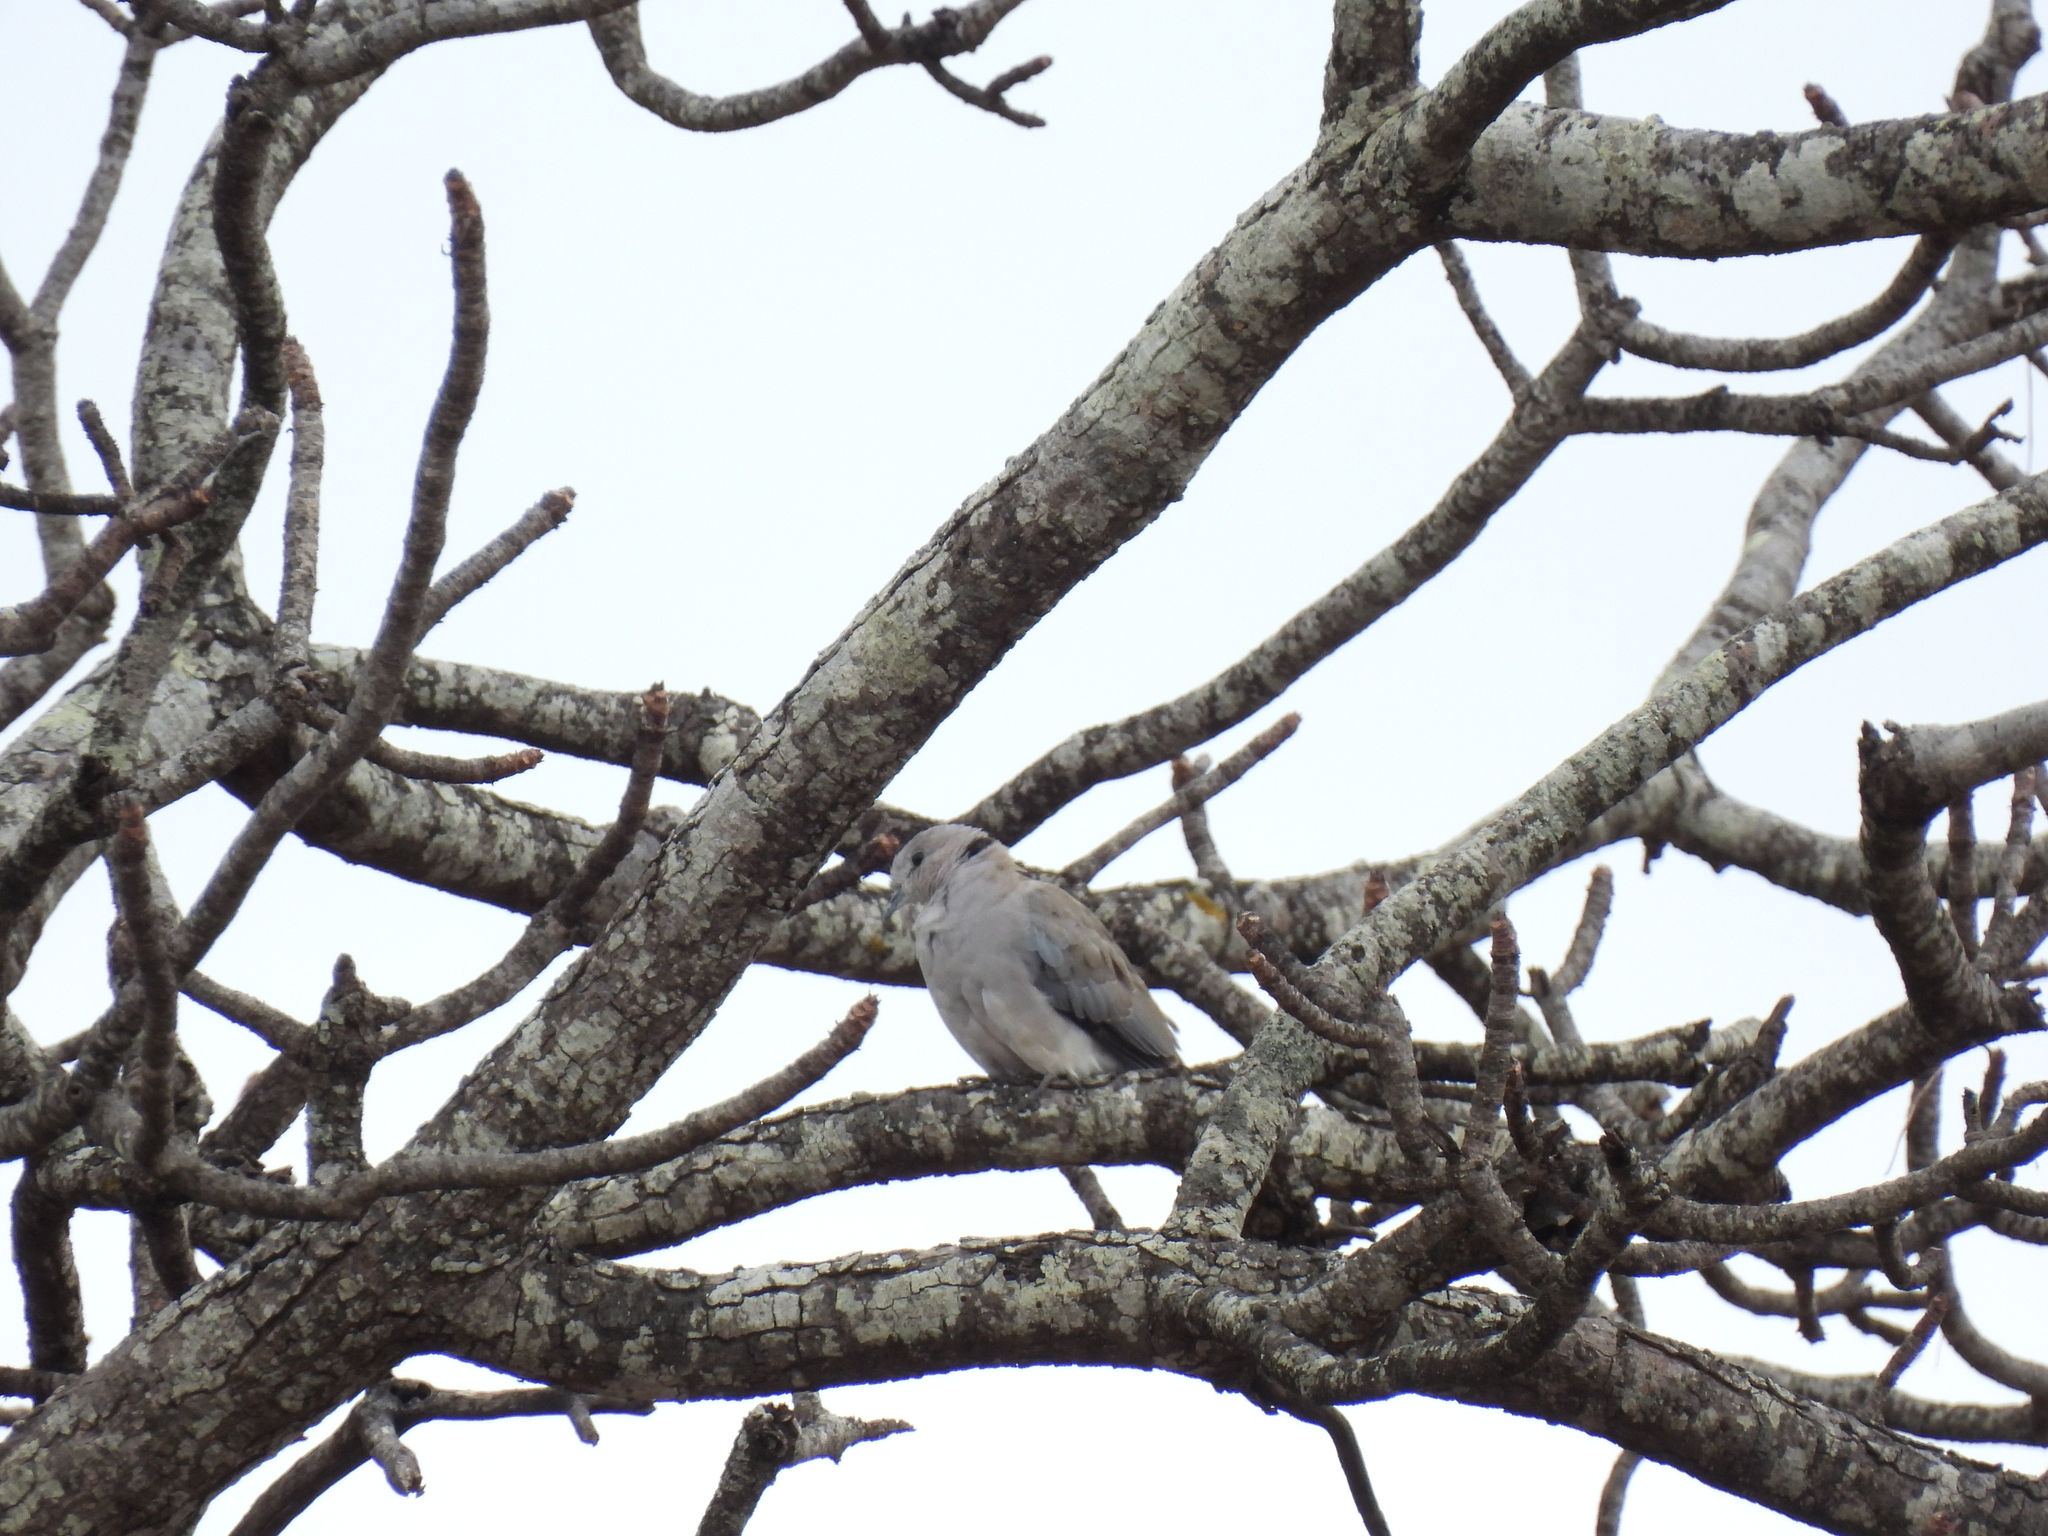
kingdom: Animalia
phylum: Chordata
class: Aves
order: Columbiformes
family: Columbidae
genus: Streptopelia
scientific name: Streptopelia capicola
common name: Ring-necked dove
